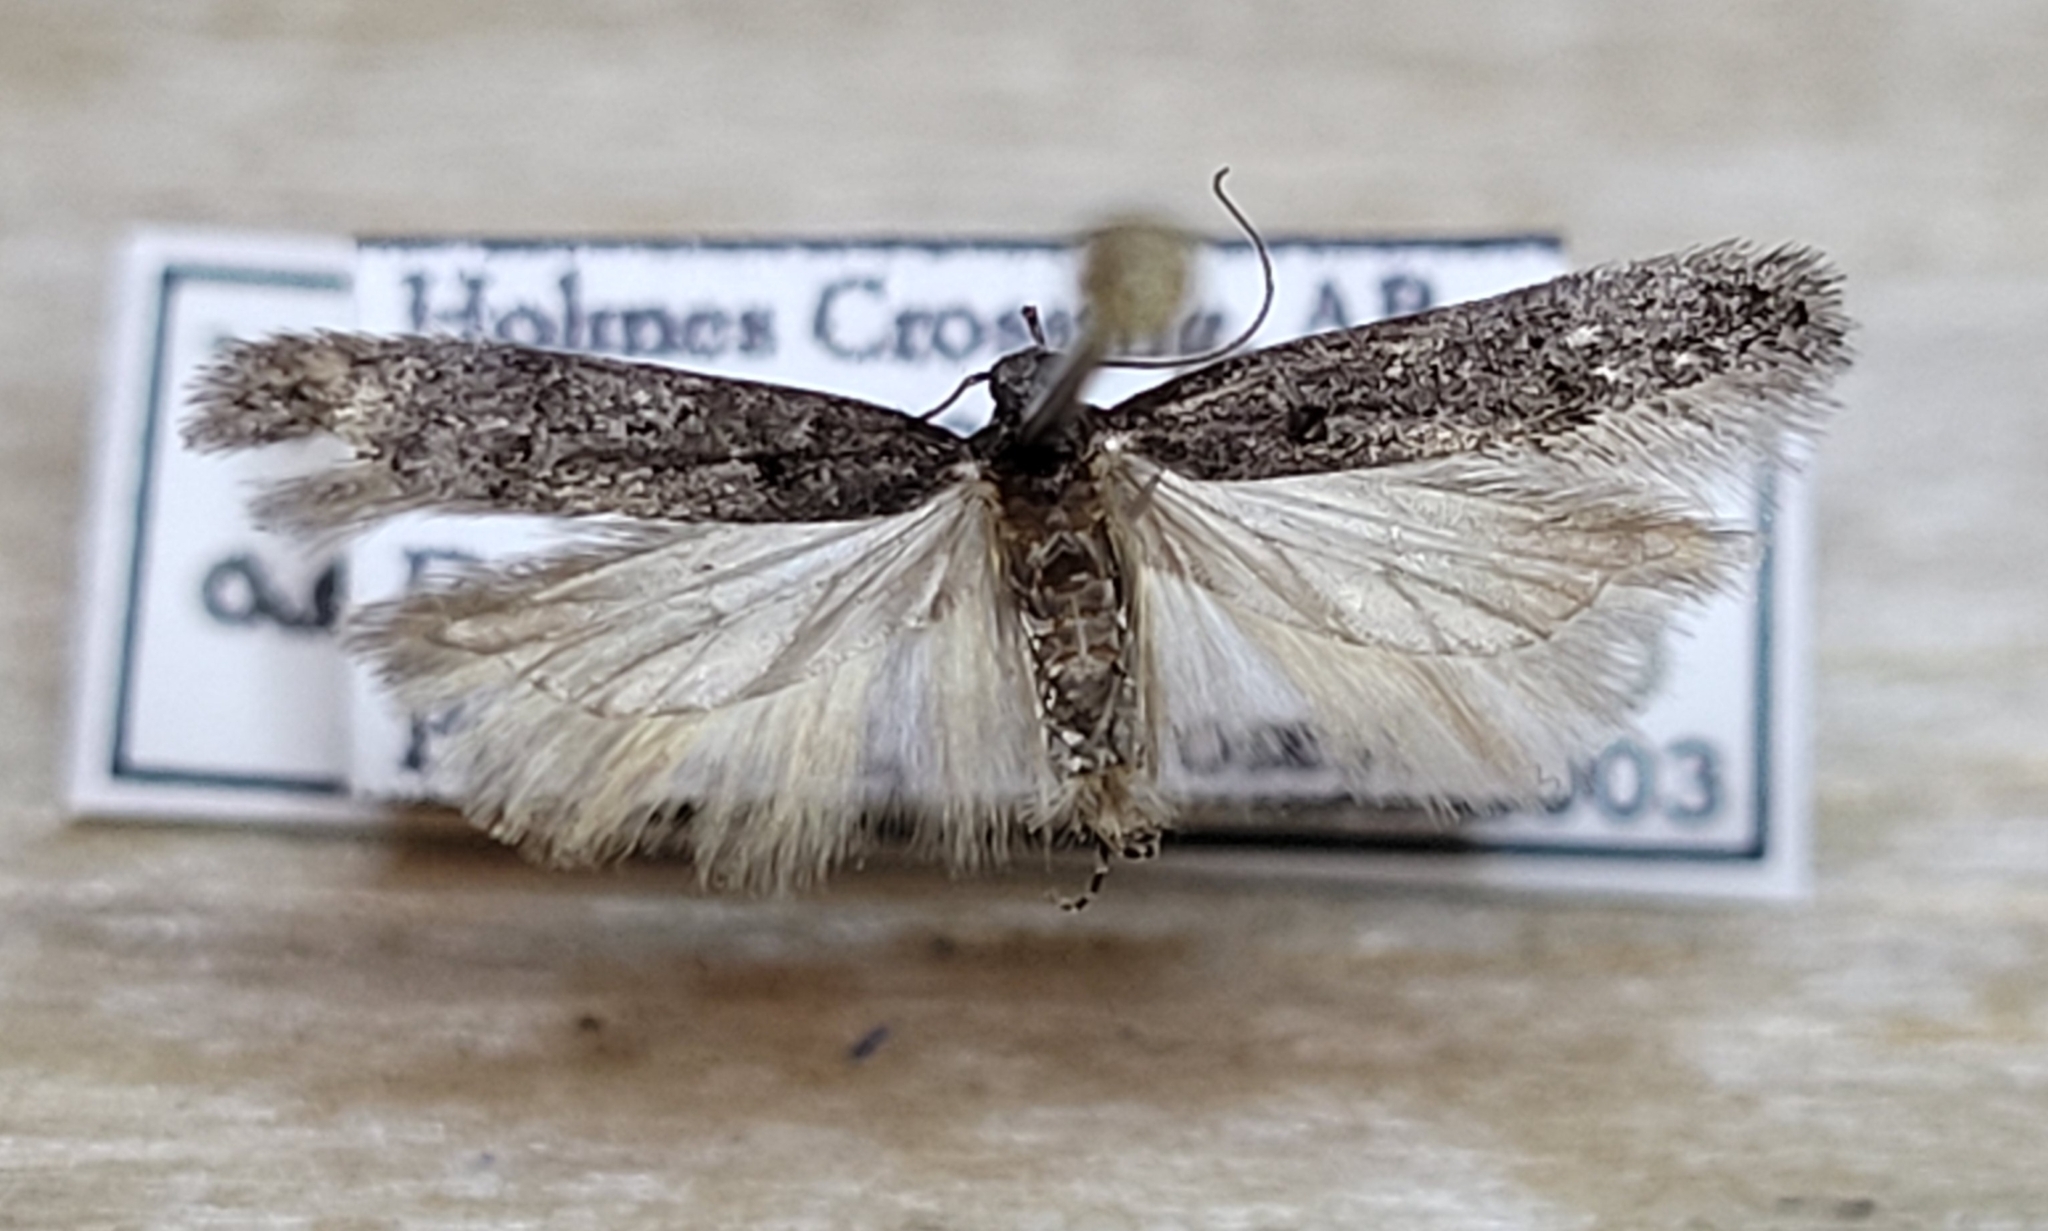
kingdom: Animalia
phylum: Arthropoda
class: Insecta
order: Lepidoptera
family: Gelechiidae
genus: Xenolechia
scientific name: Xenolechia aethiops
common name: Moorland groundling
